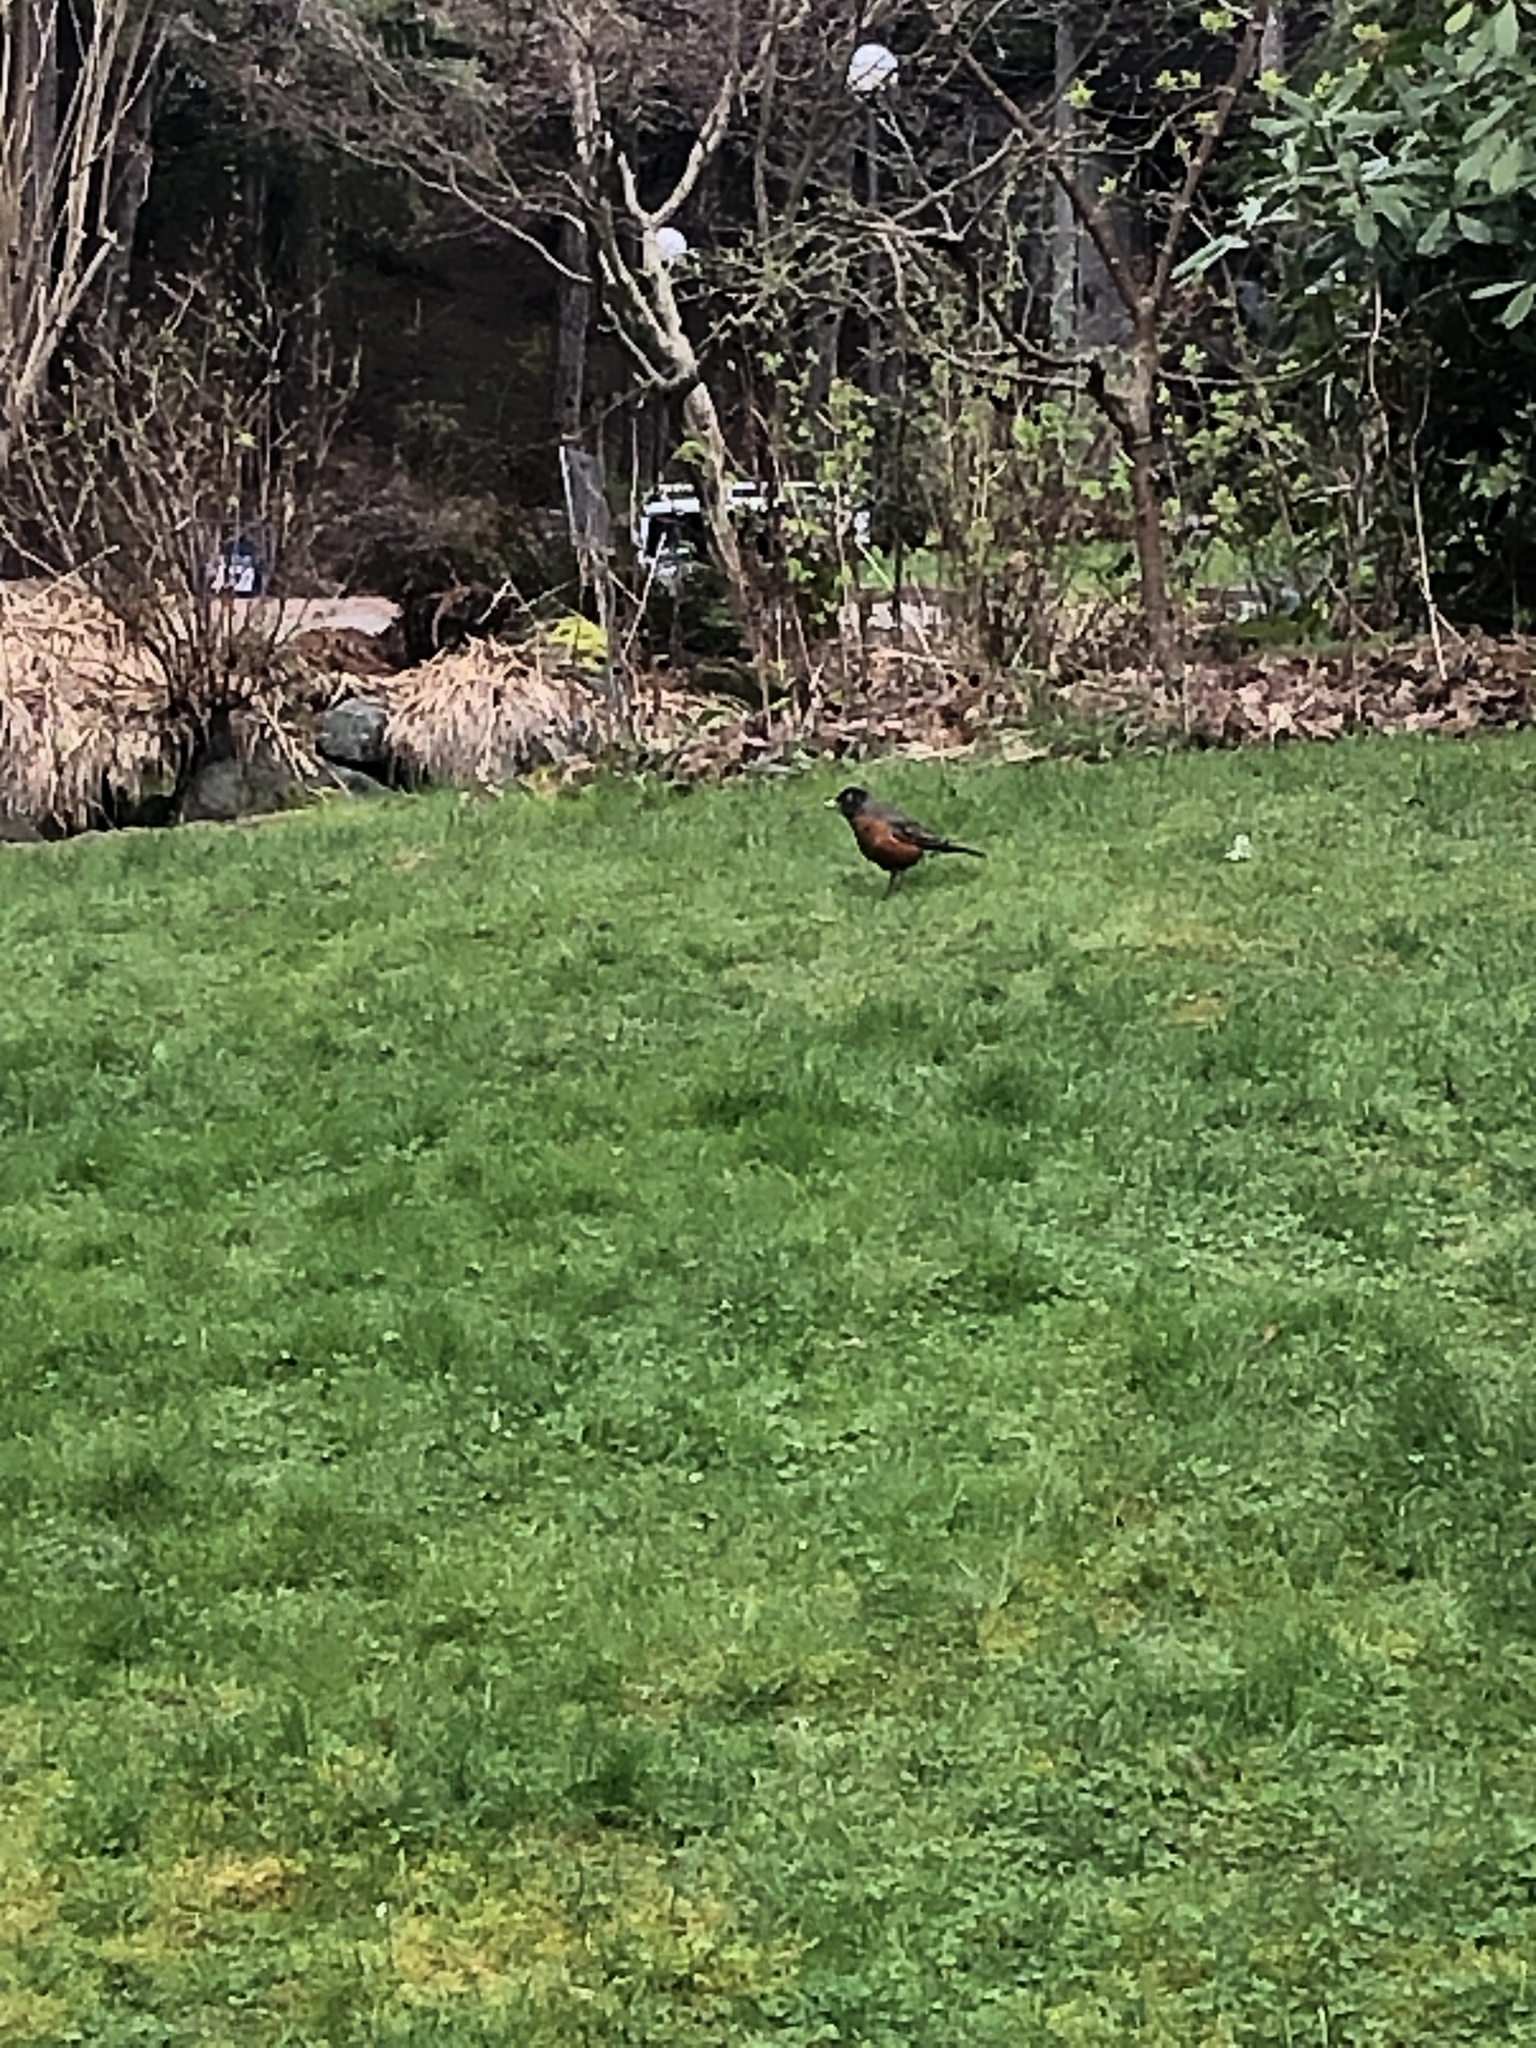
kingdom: Animalia
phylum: Chordata
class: Aves
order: Passeriformes
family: Turdidae
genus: Turdus
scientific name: Turdus migratorius
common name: American robin
